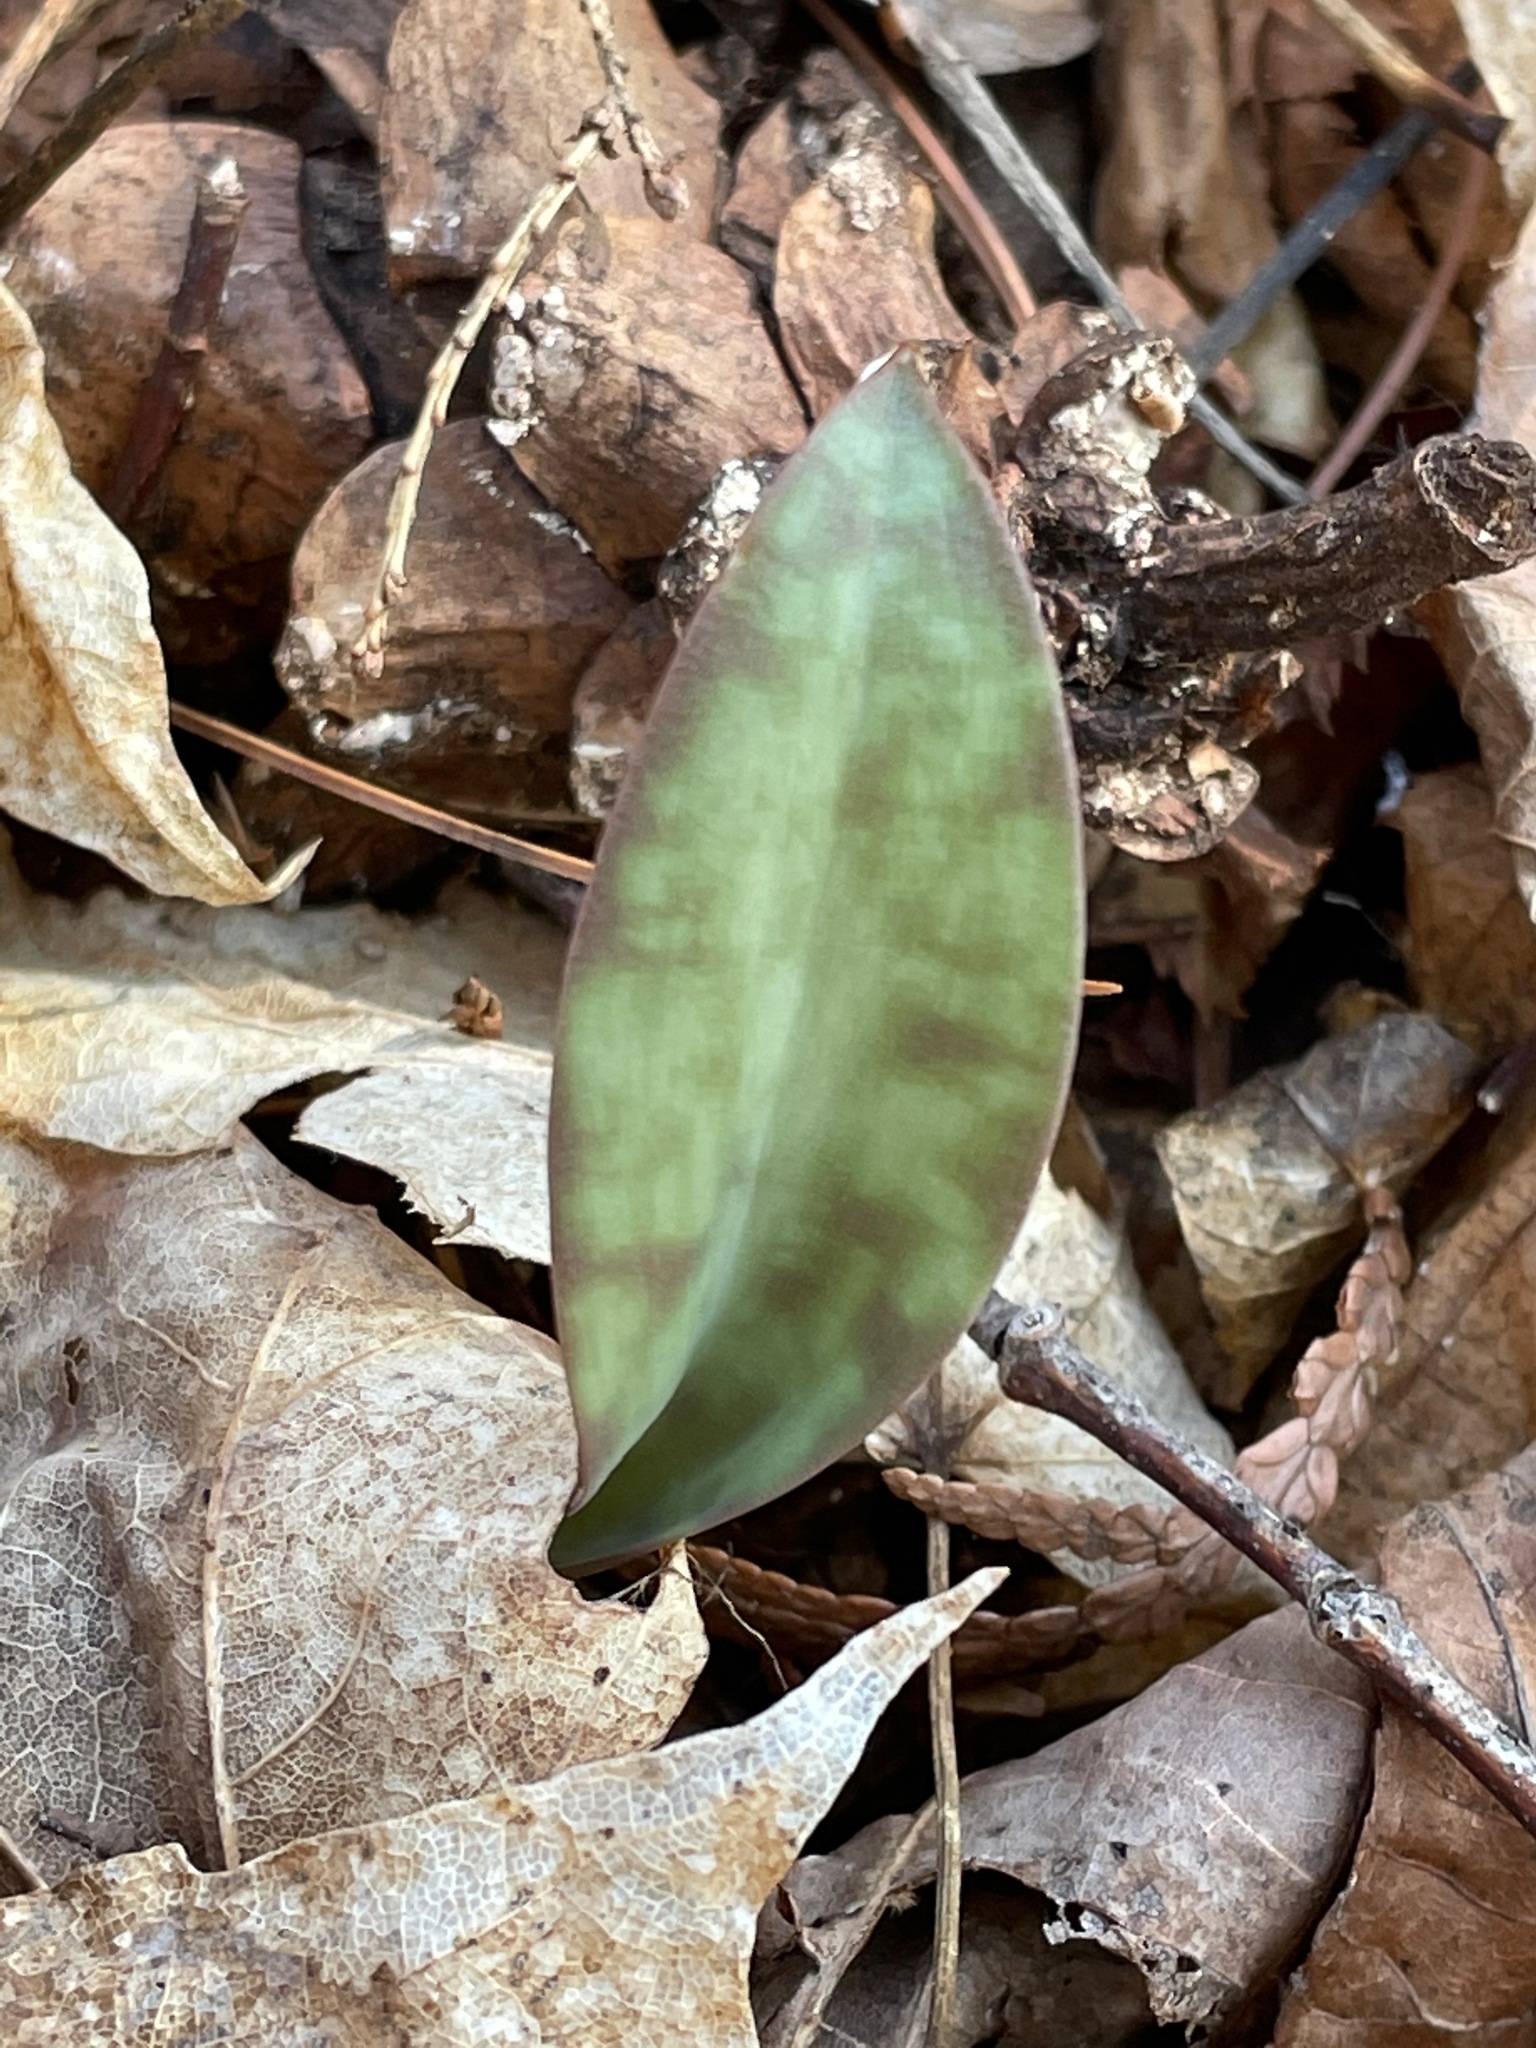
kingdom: Plantae
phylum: Tracheophyta
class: Liliopsida
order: Liliales
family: Liliaceae
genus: Erythronium
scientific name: Erythronium americanum
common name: Yellow adder's-tongue
